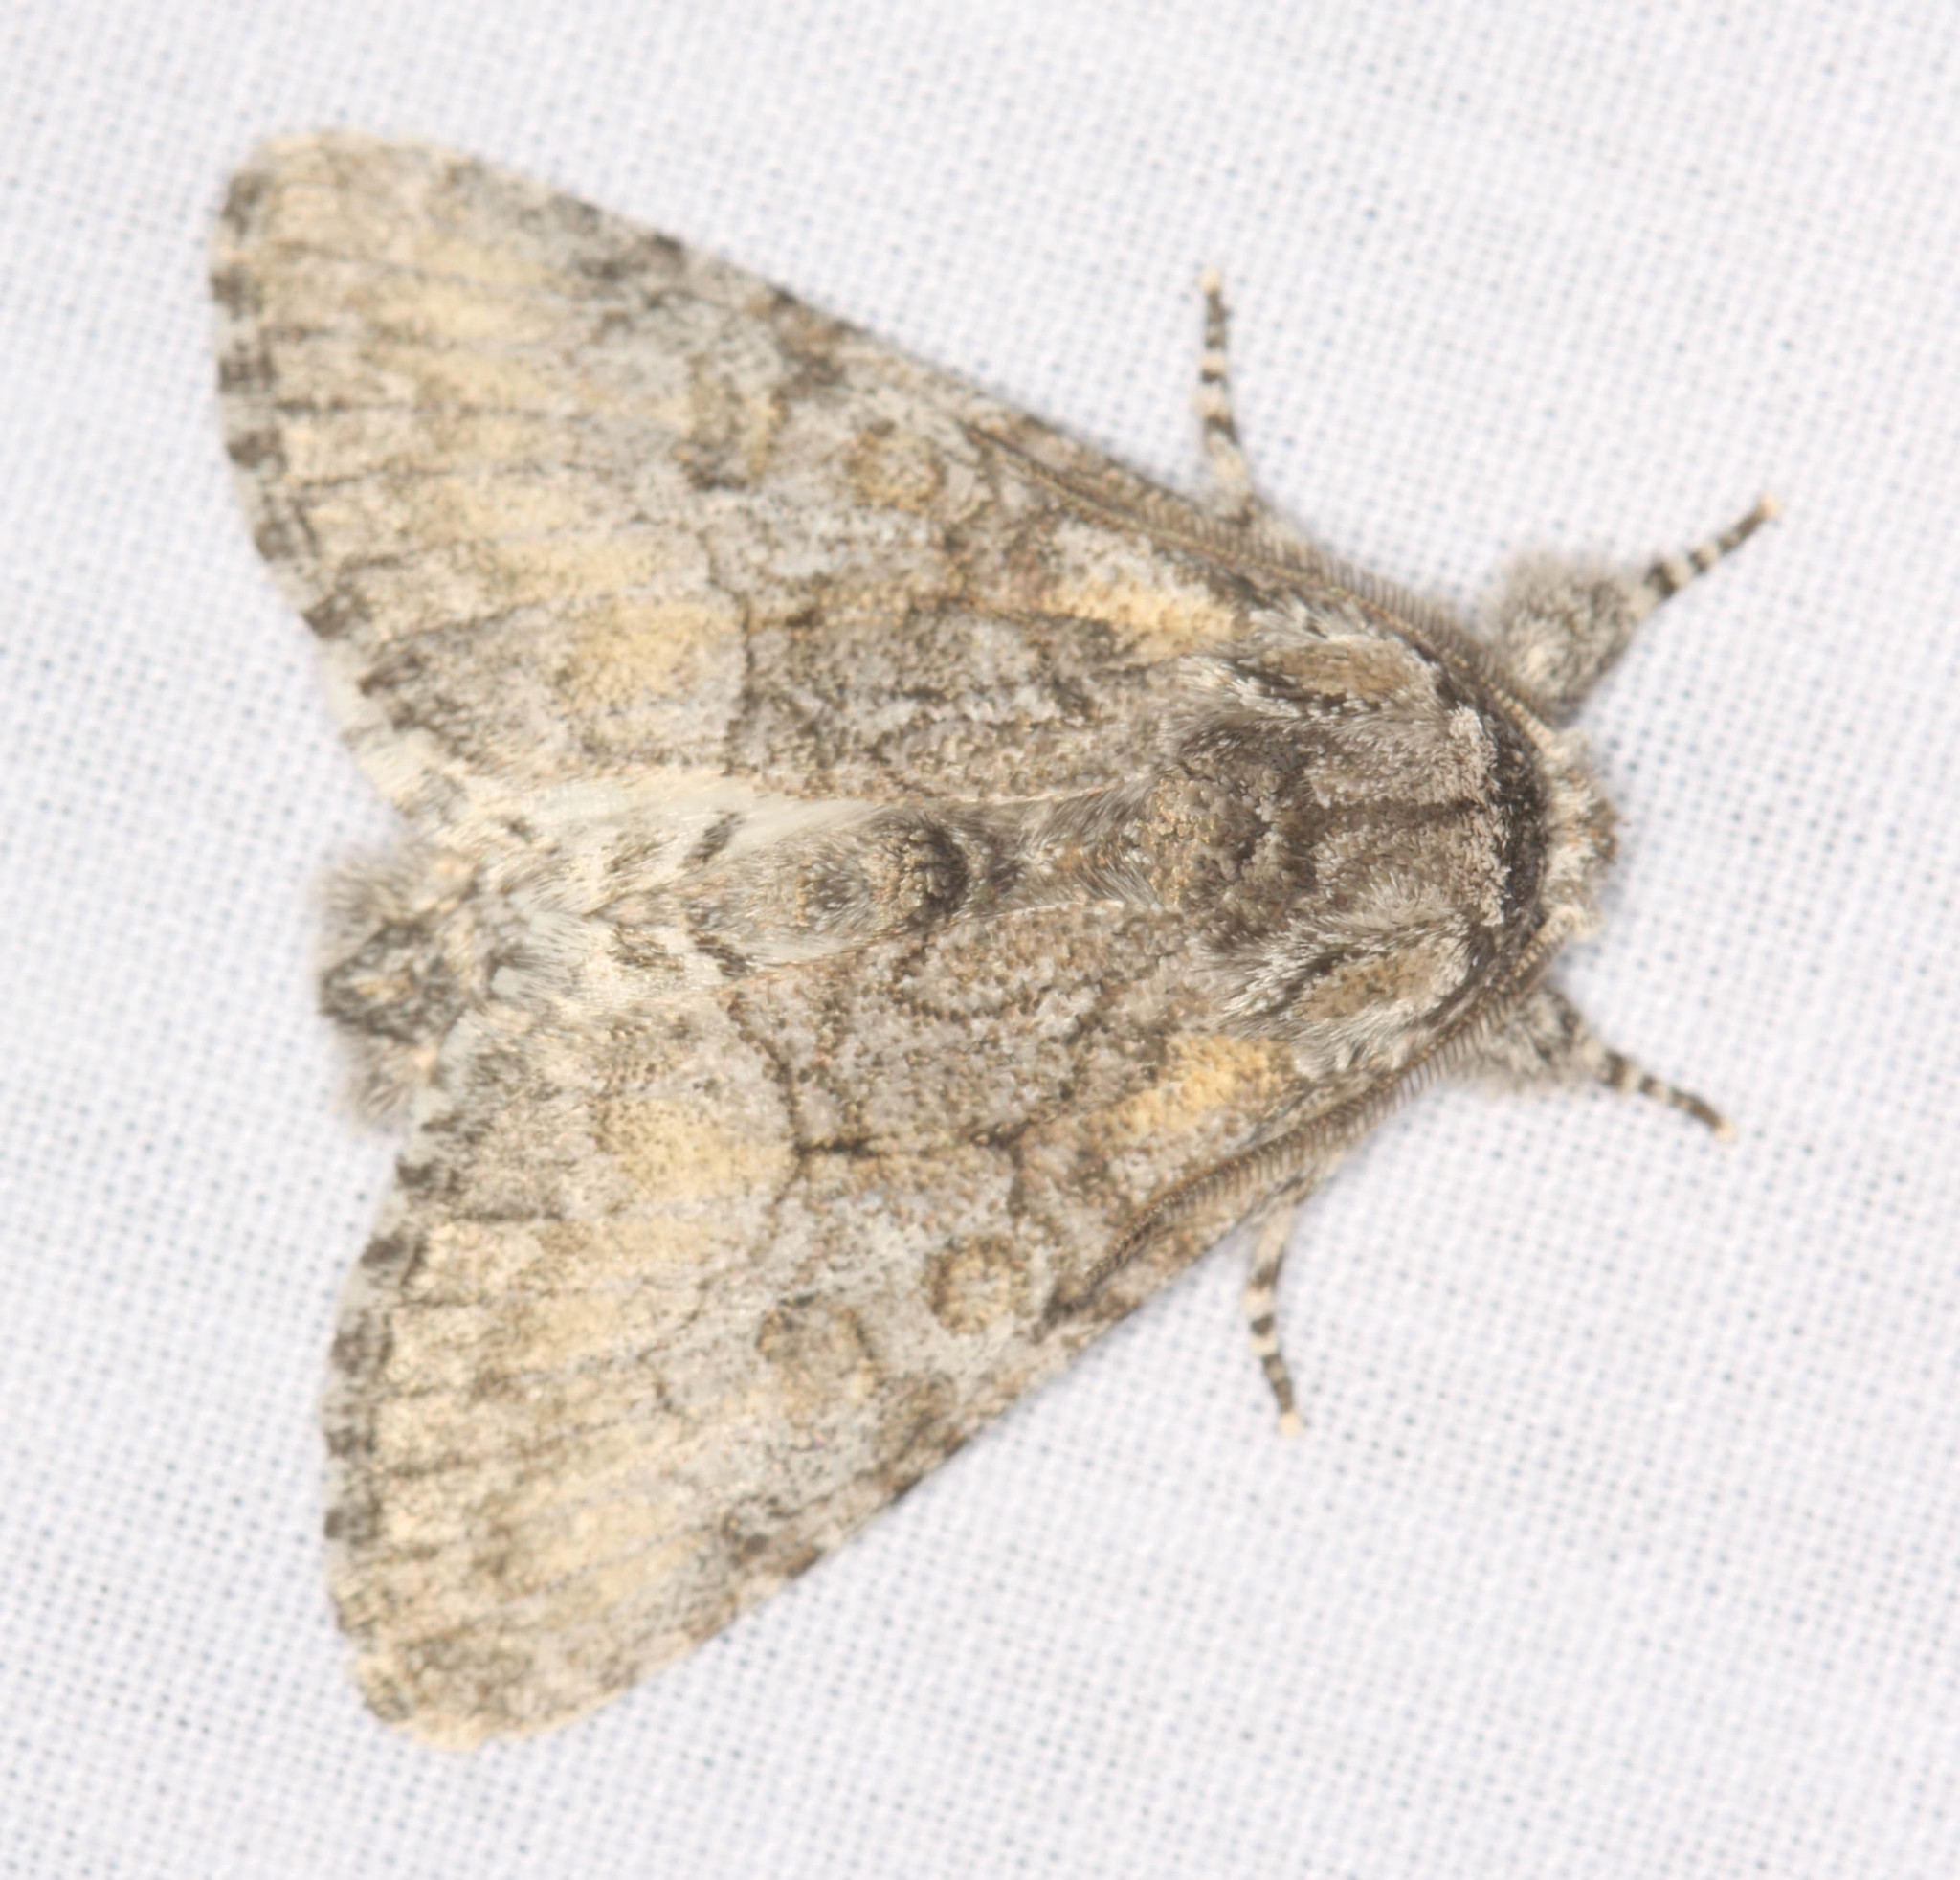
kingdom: Animalia
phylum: Arthropoda
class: Insecta
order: Lepidoptera
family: Noctuidae
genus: Raphia
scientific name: Raphia frater
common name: Brother
